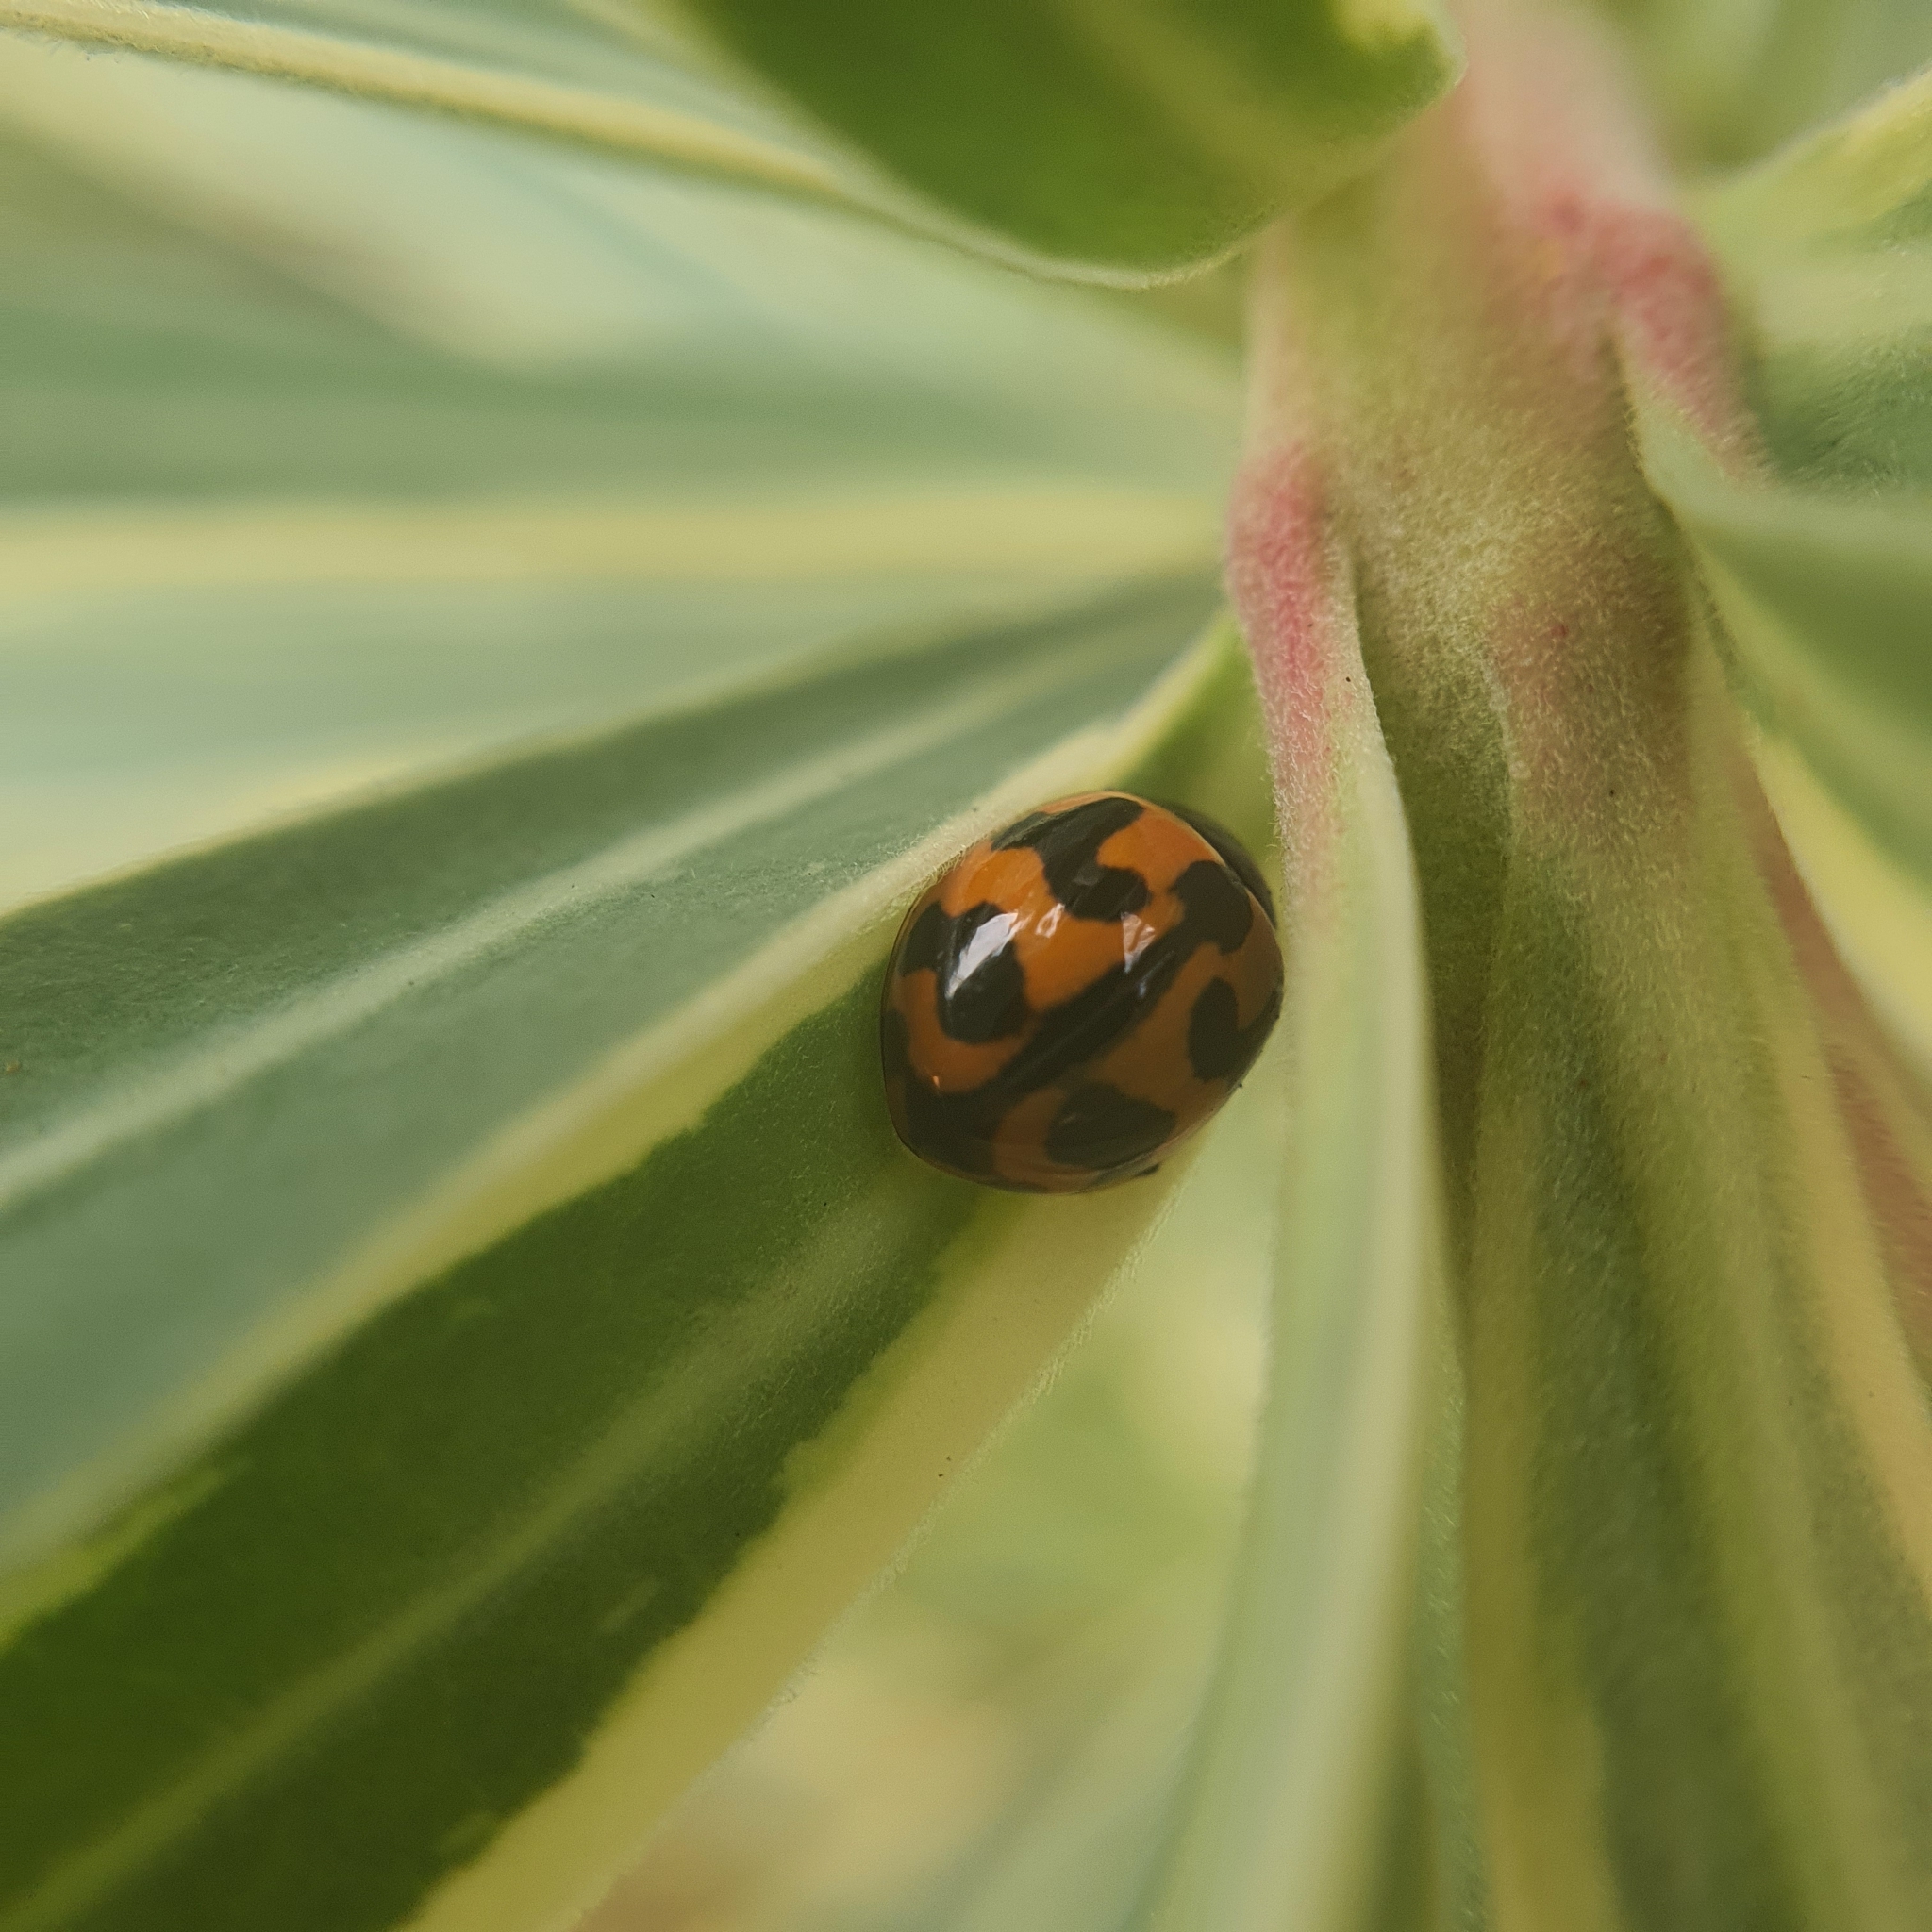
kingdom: Animalia
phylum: Arthropoda
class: Insecta
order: Coleoptera
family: Coccinellidae
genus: Coccinella
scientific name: Coccinella transversalis
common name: Transverse lady beetle
